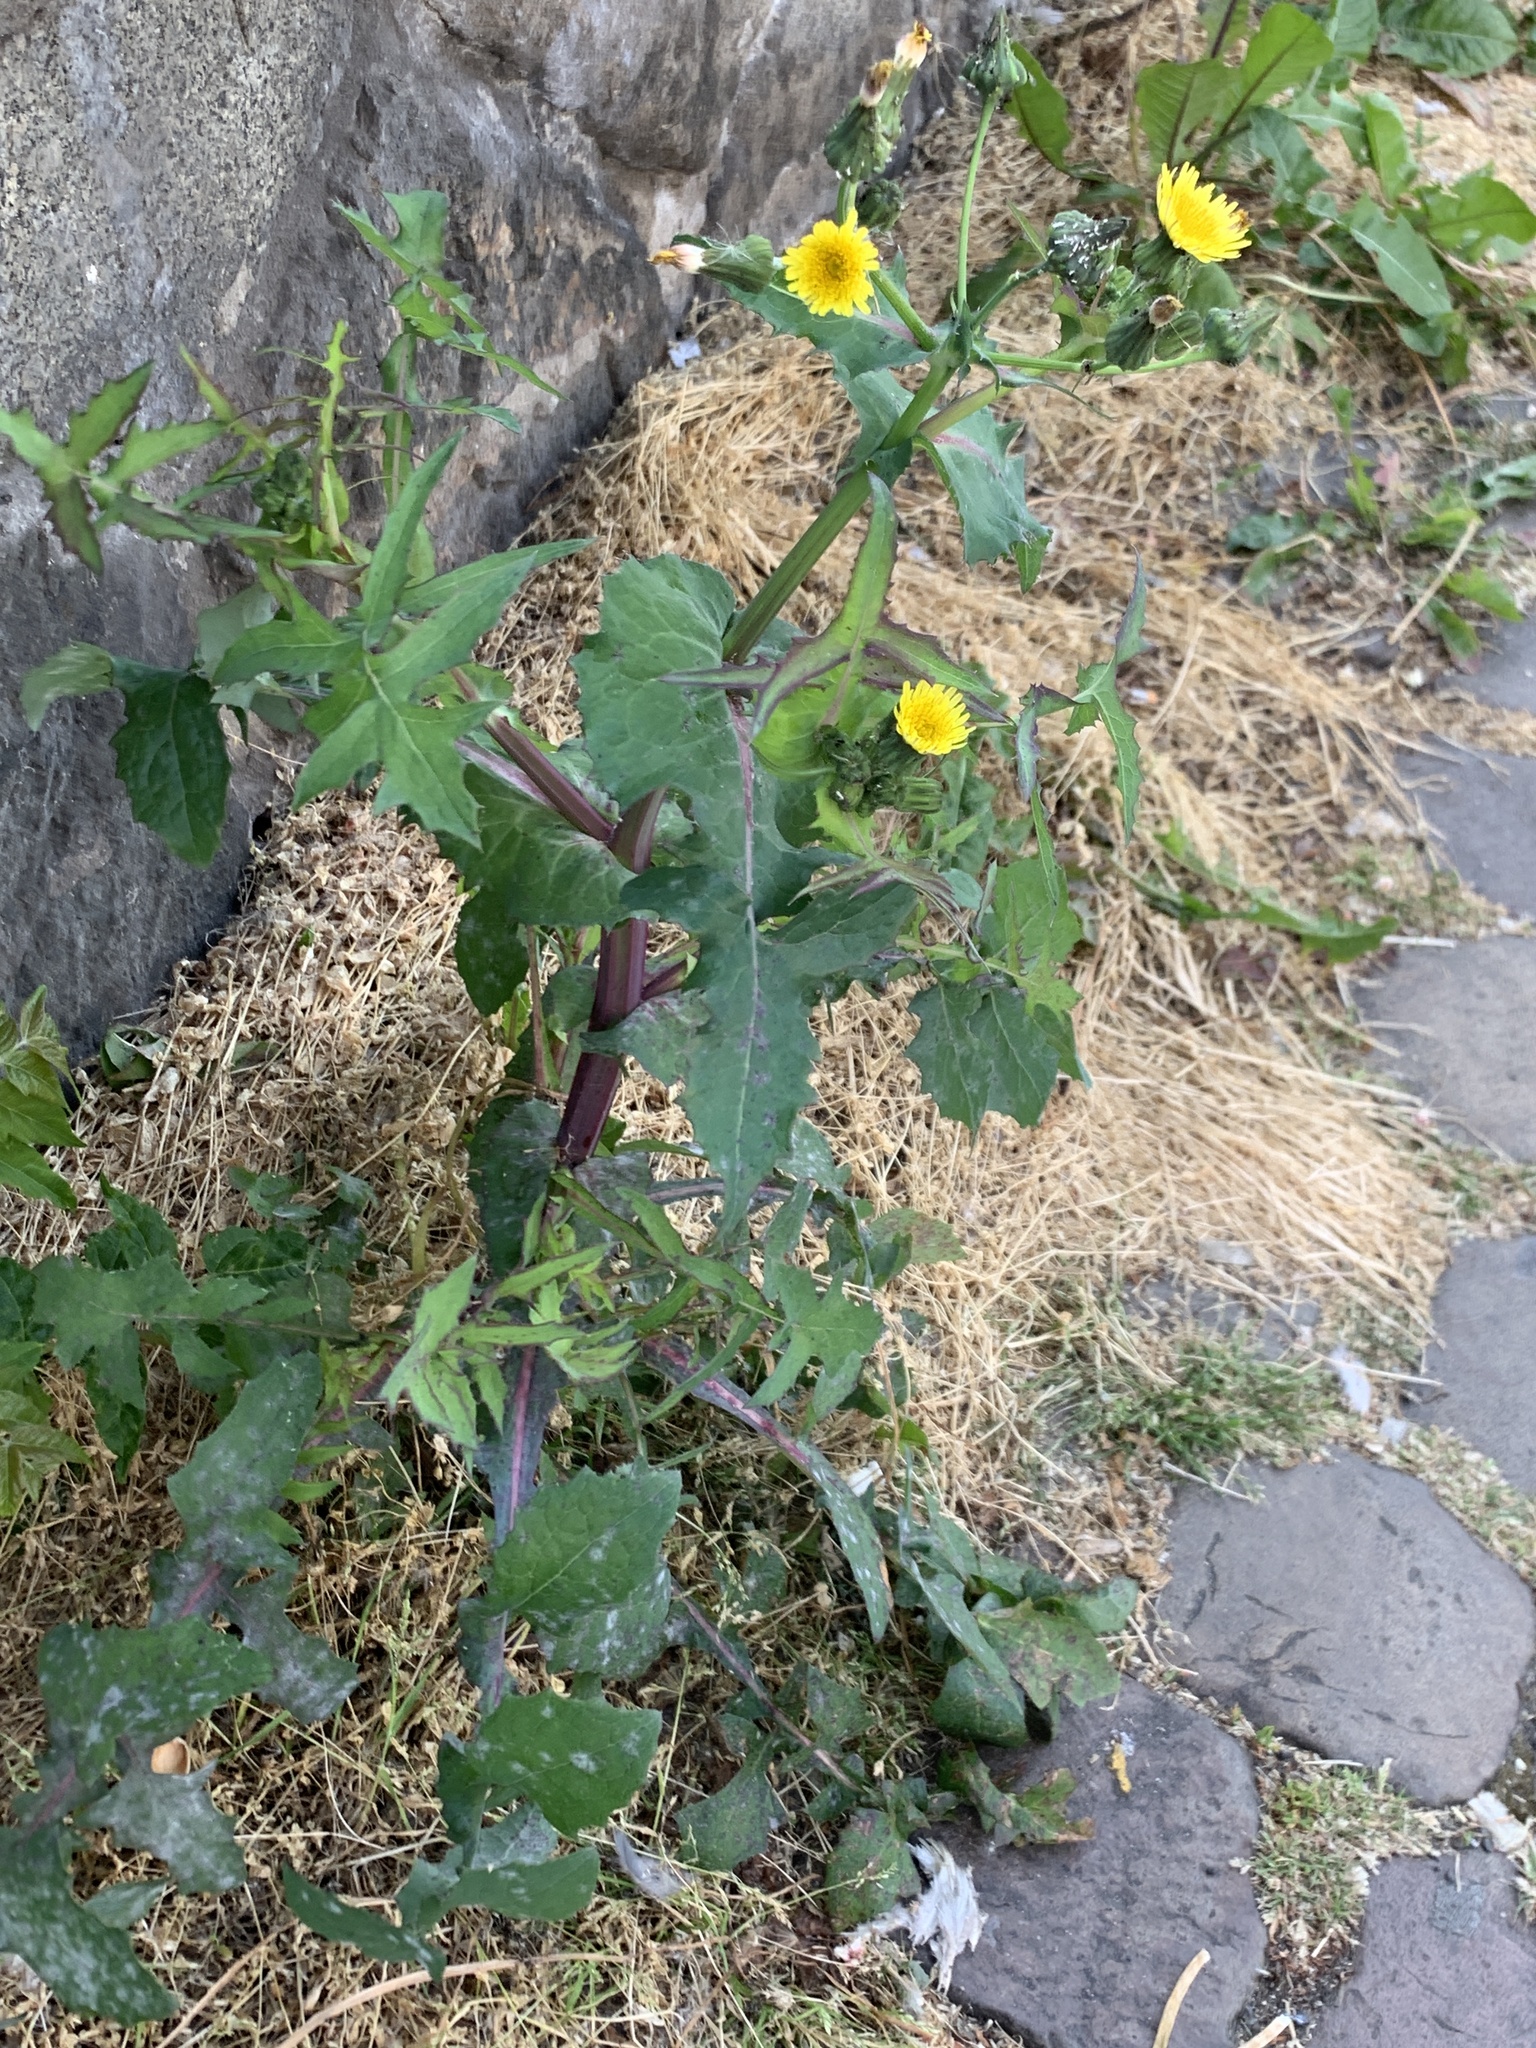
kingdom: Plantae
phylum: Tracheophyta
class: Magnoliopsida
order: Asterales
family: Asteraceae
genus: Sonchus
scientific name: Sonchus oleraceus
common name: Common sowthistle
